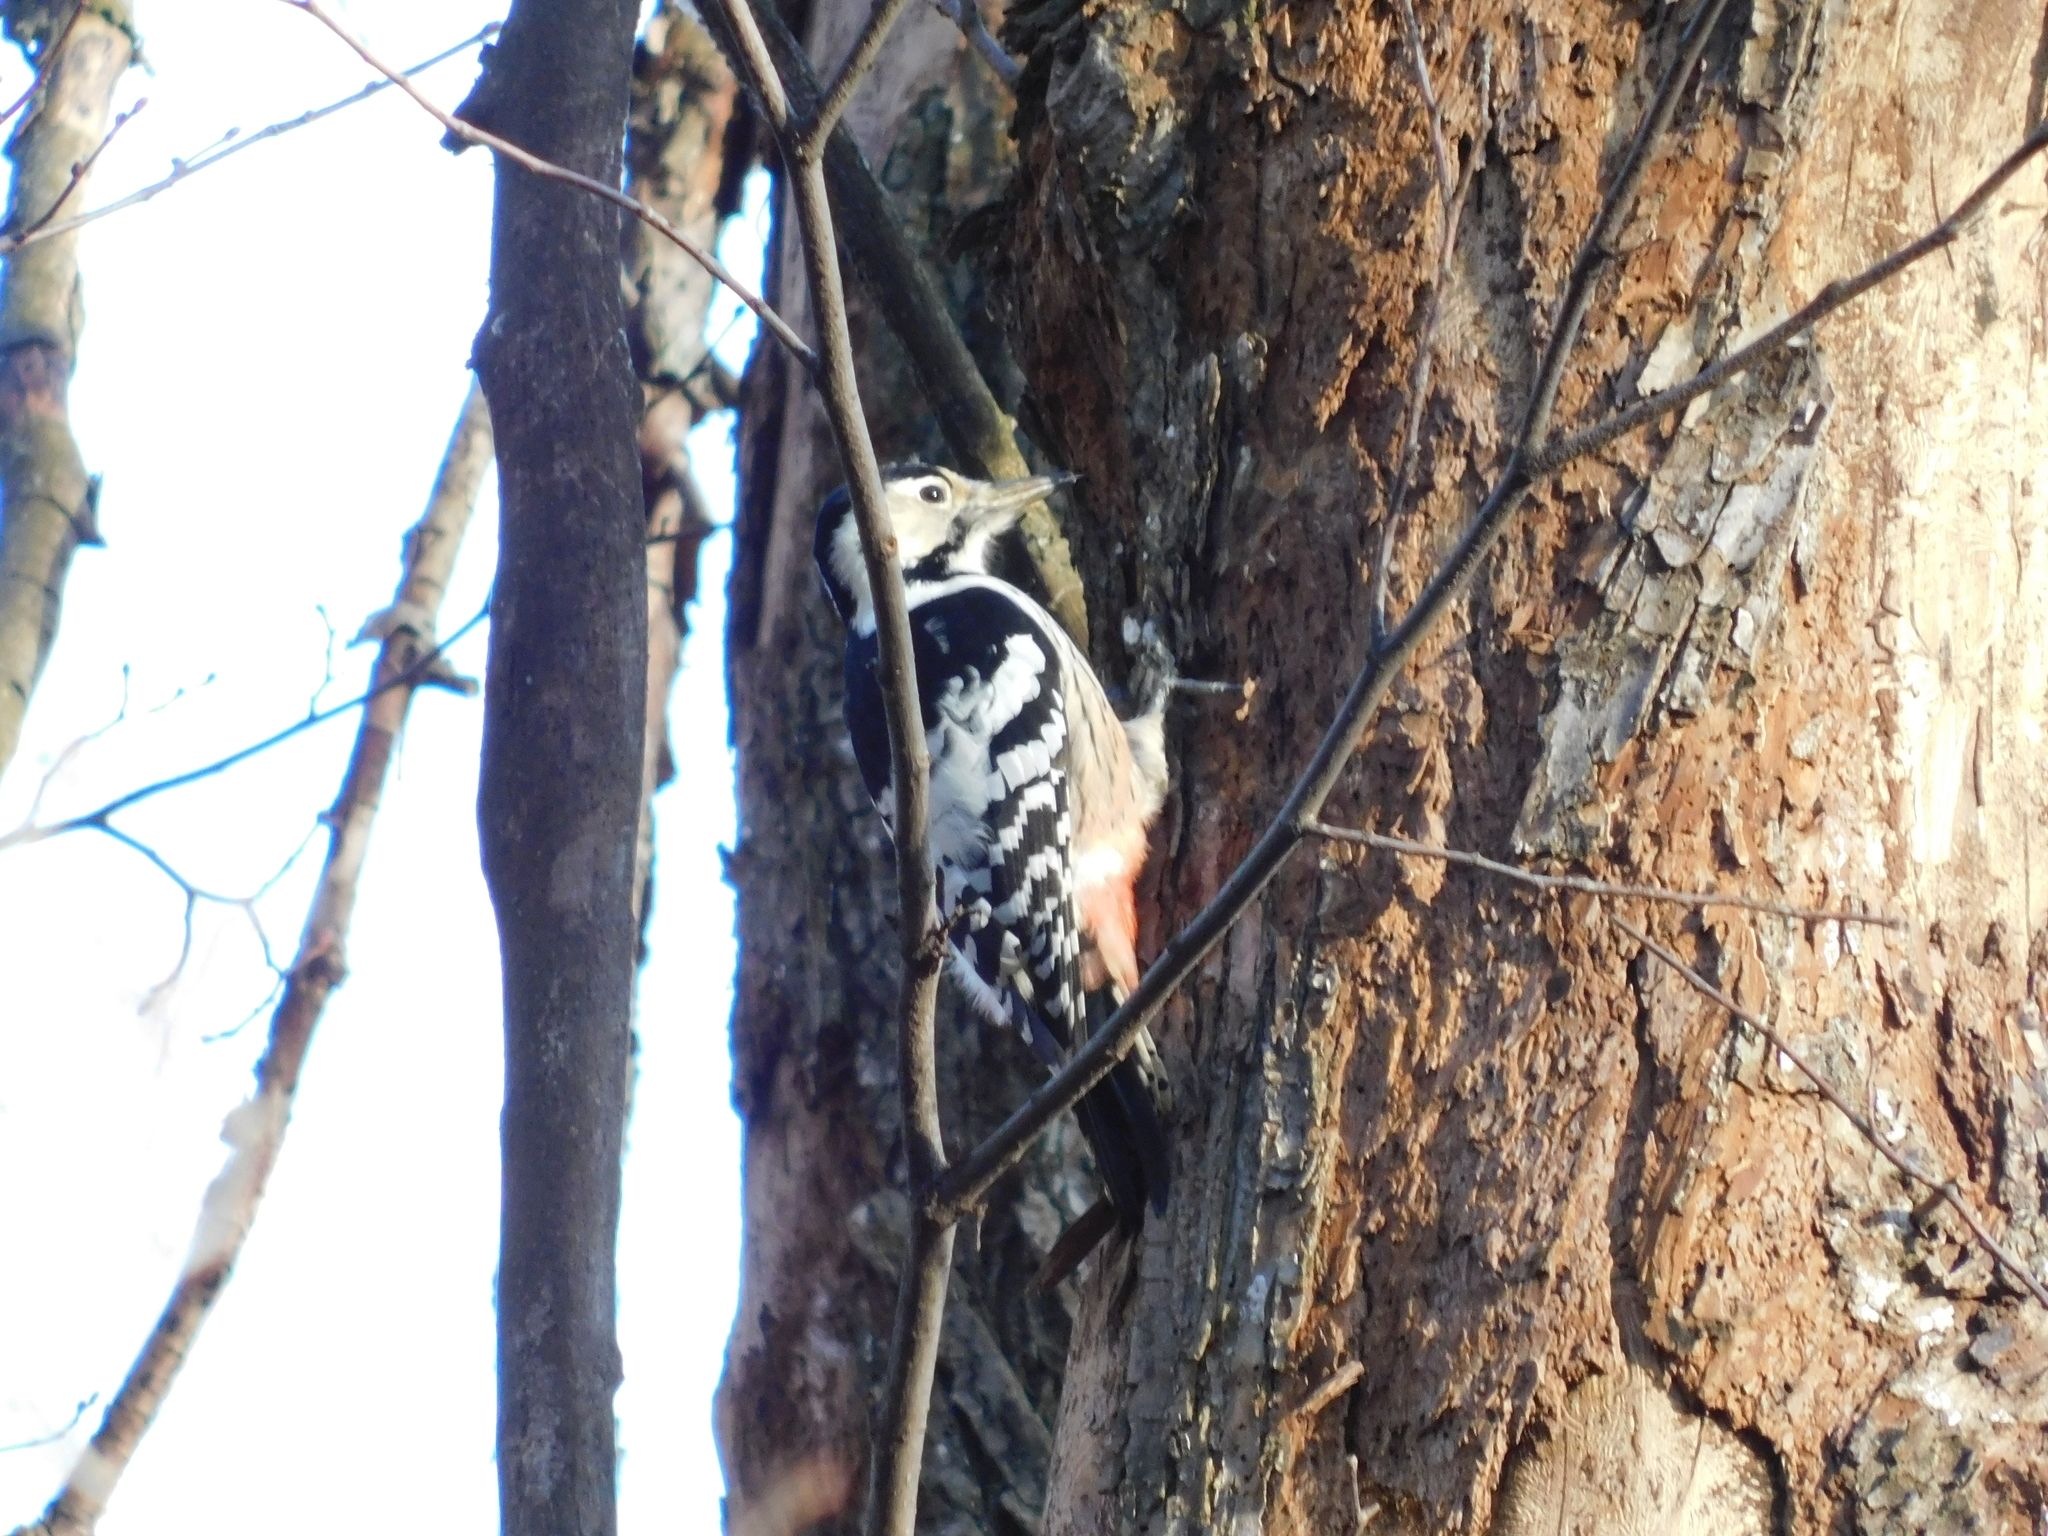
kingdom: Animalia
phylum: Chordata
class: Aves
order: Piciformes
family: Picidae
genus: Dendrocopos
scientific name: Dendrocopos leucotos
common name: White-backed woodpecker
